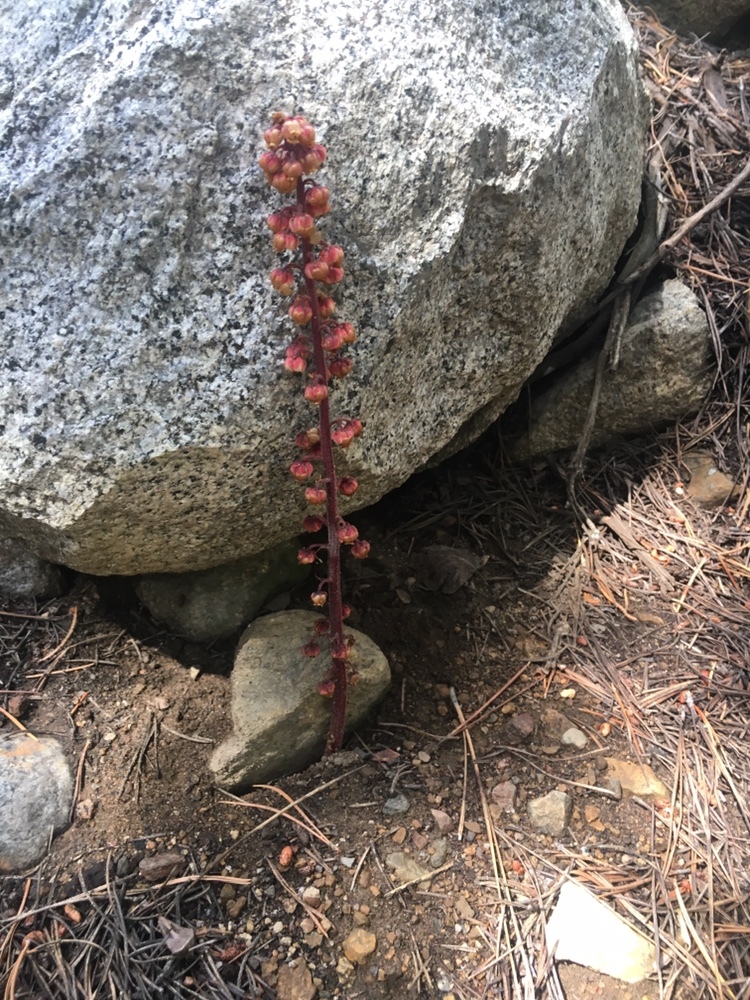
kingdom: Plantae
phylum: Tracheophyta
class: Magnoliopsida
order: Ericales
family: Ericaceae
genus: Pterospora
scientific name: Pterospora andromedea
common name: Giant bird's-nest
